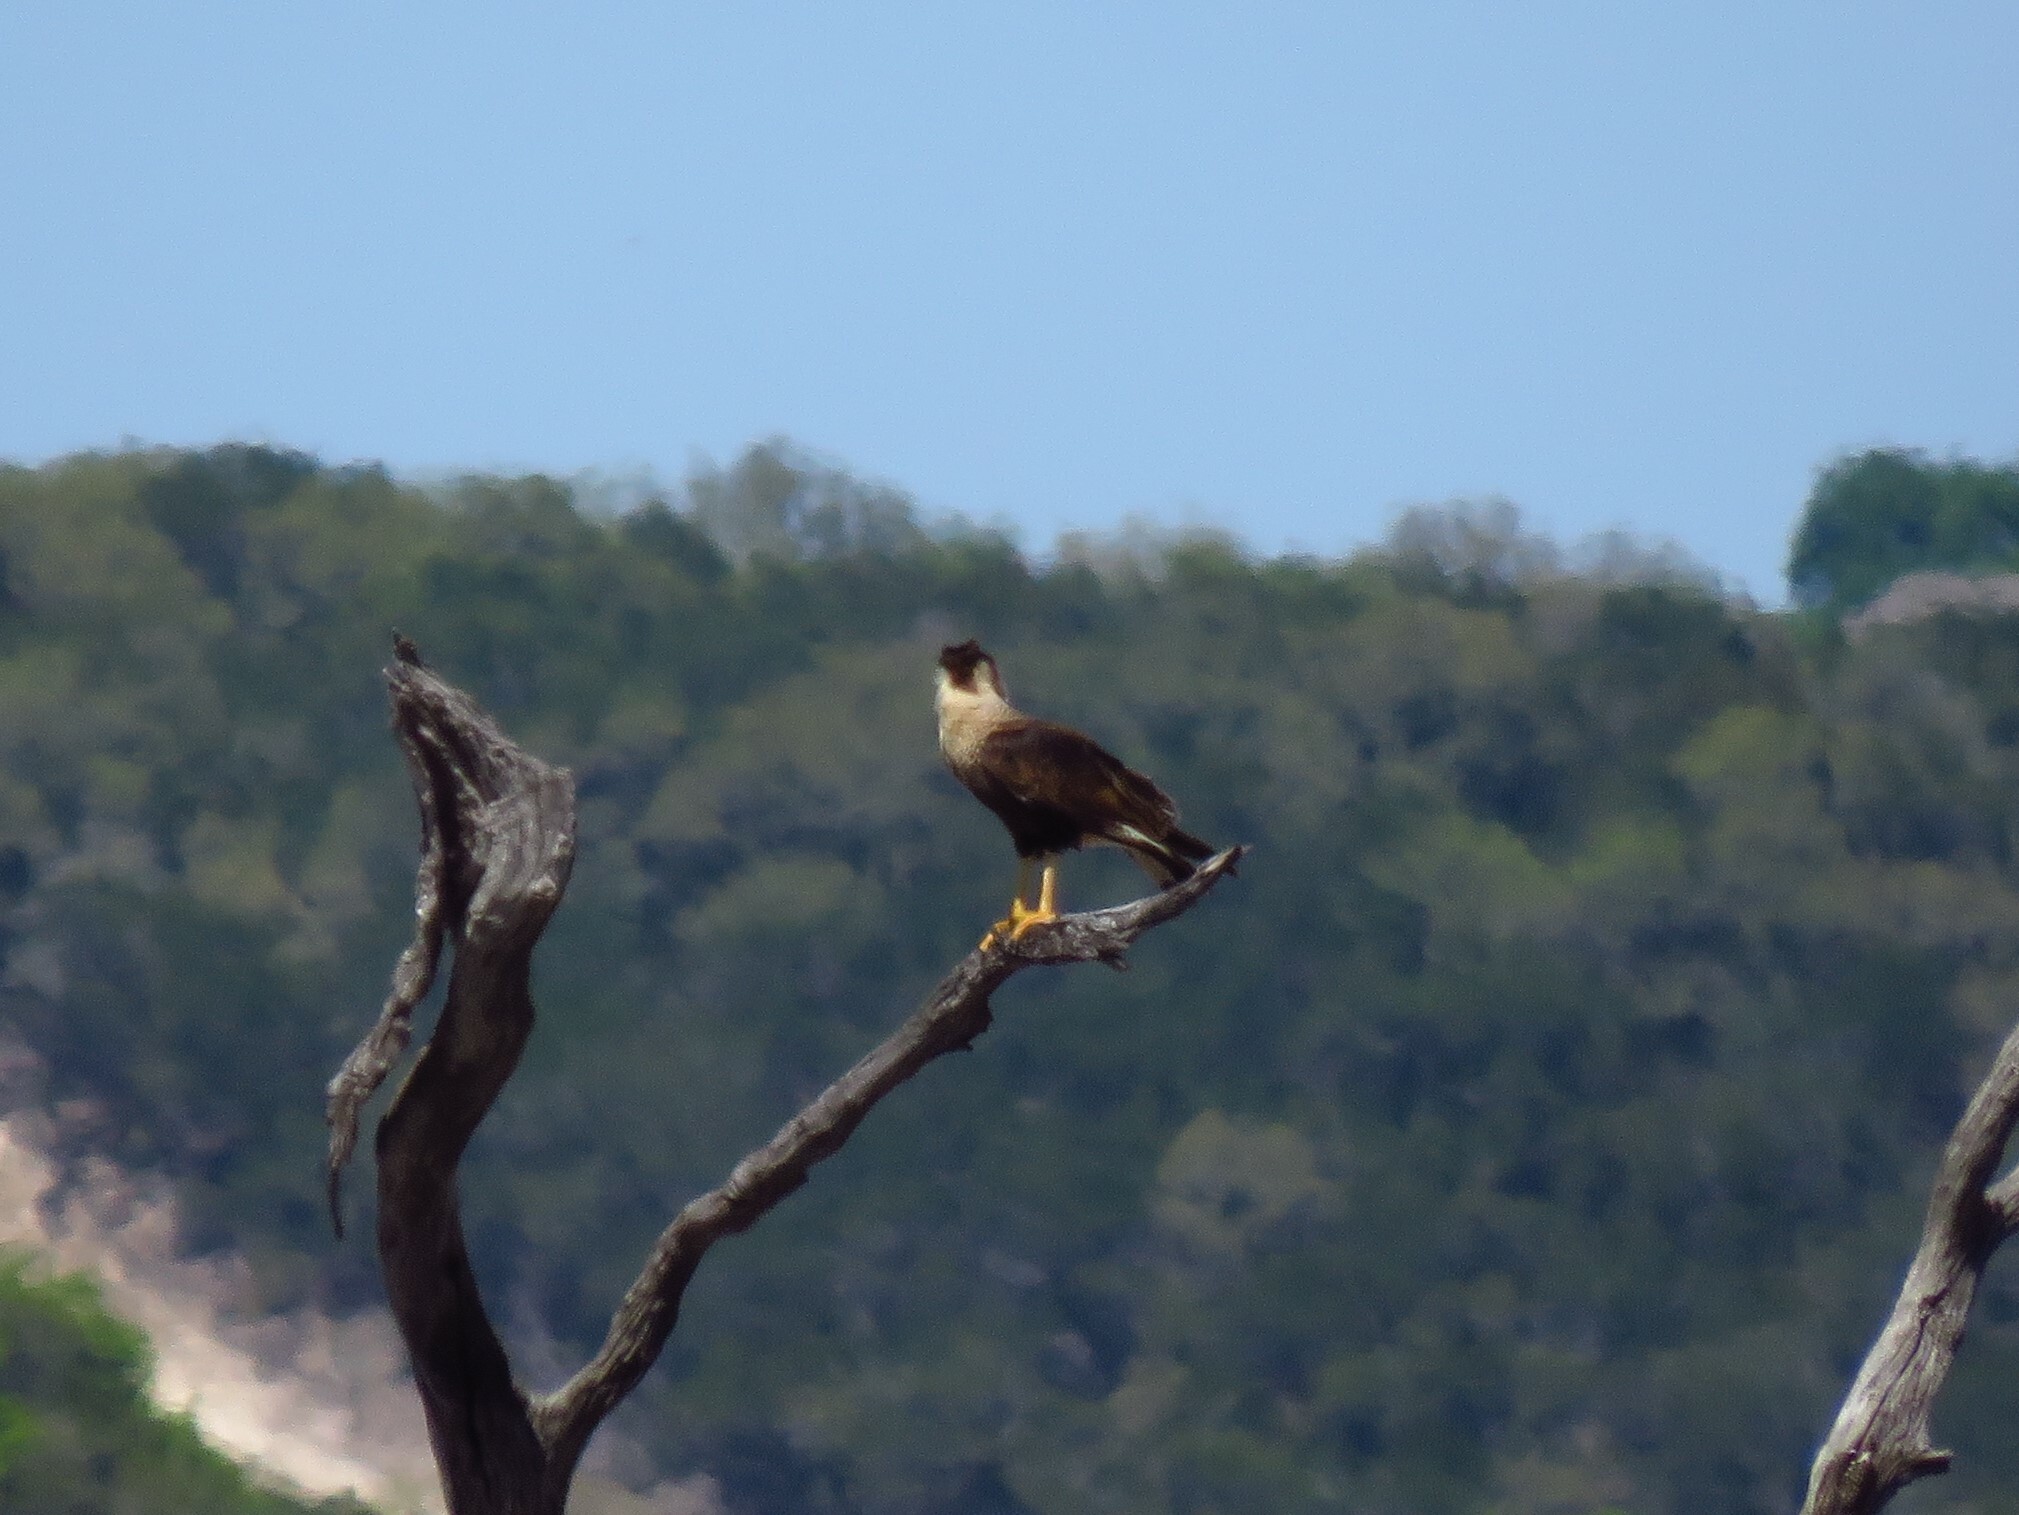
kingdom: Animalia
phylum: Chordata
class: Aves
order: Falconiformes
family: Falconidae
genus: Caracara
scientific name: Caracara plancus
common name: Southern caracara
